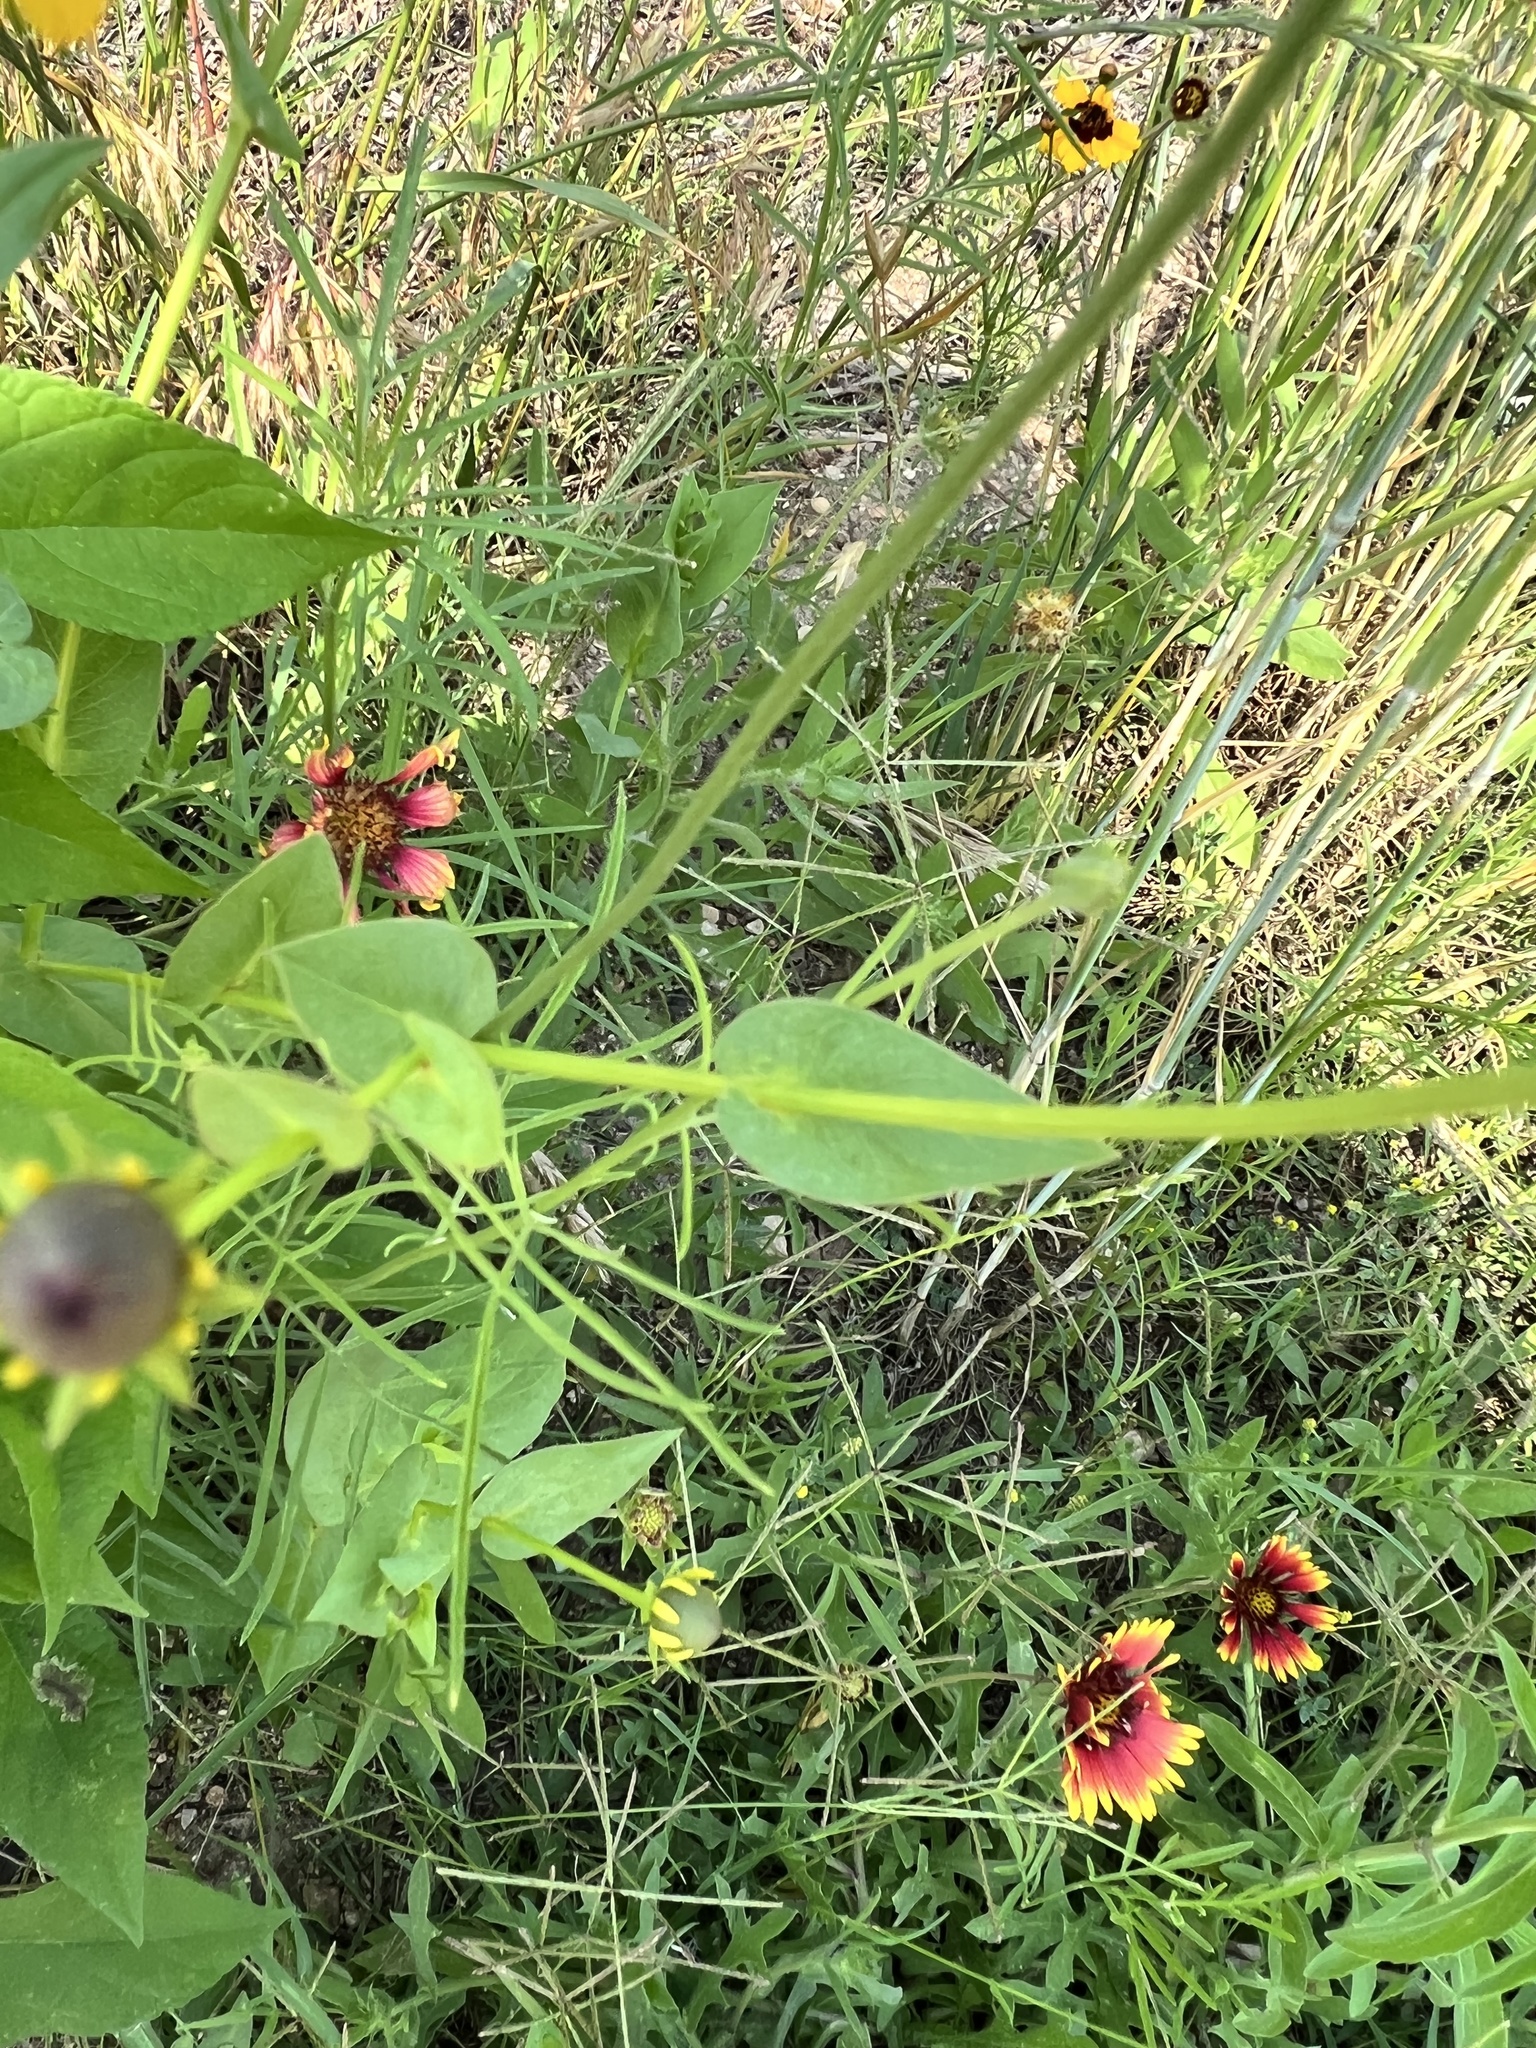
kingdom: Plantae
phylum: Tracheophyta
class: Magnoliopsida
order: Asterales
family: Asteraceae
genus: Rudbeckia
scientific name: Rudbeckia amplexicaulis
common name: Clasping-leaf coneflower
